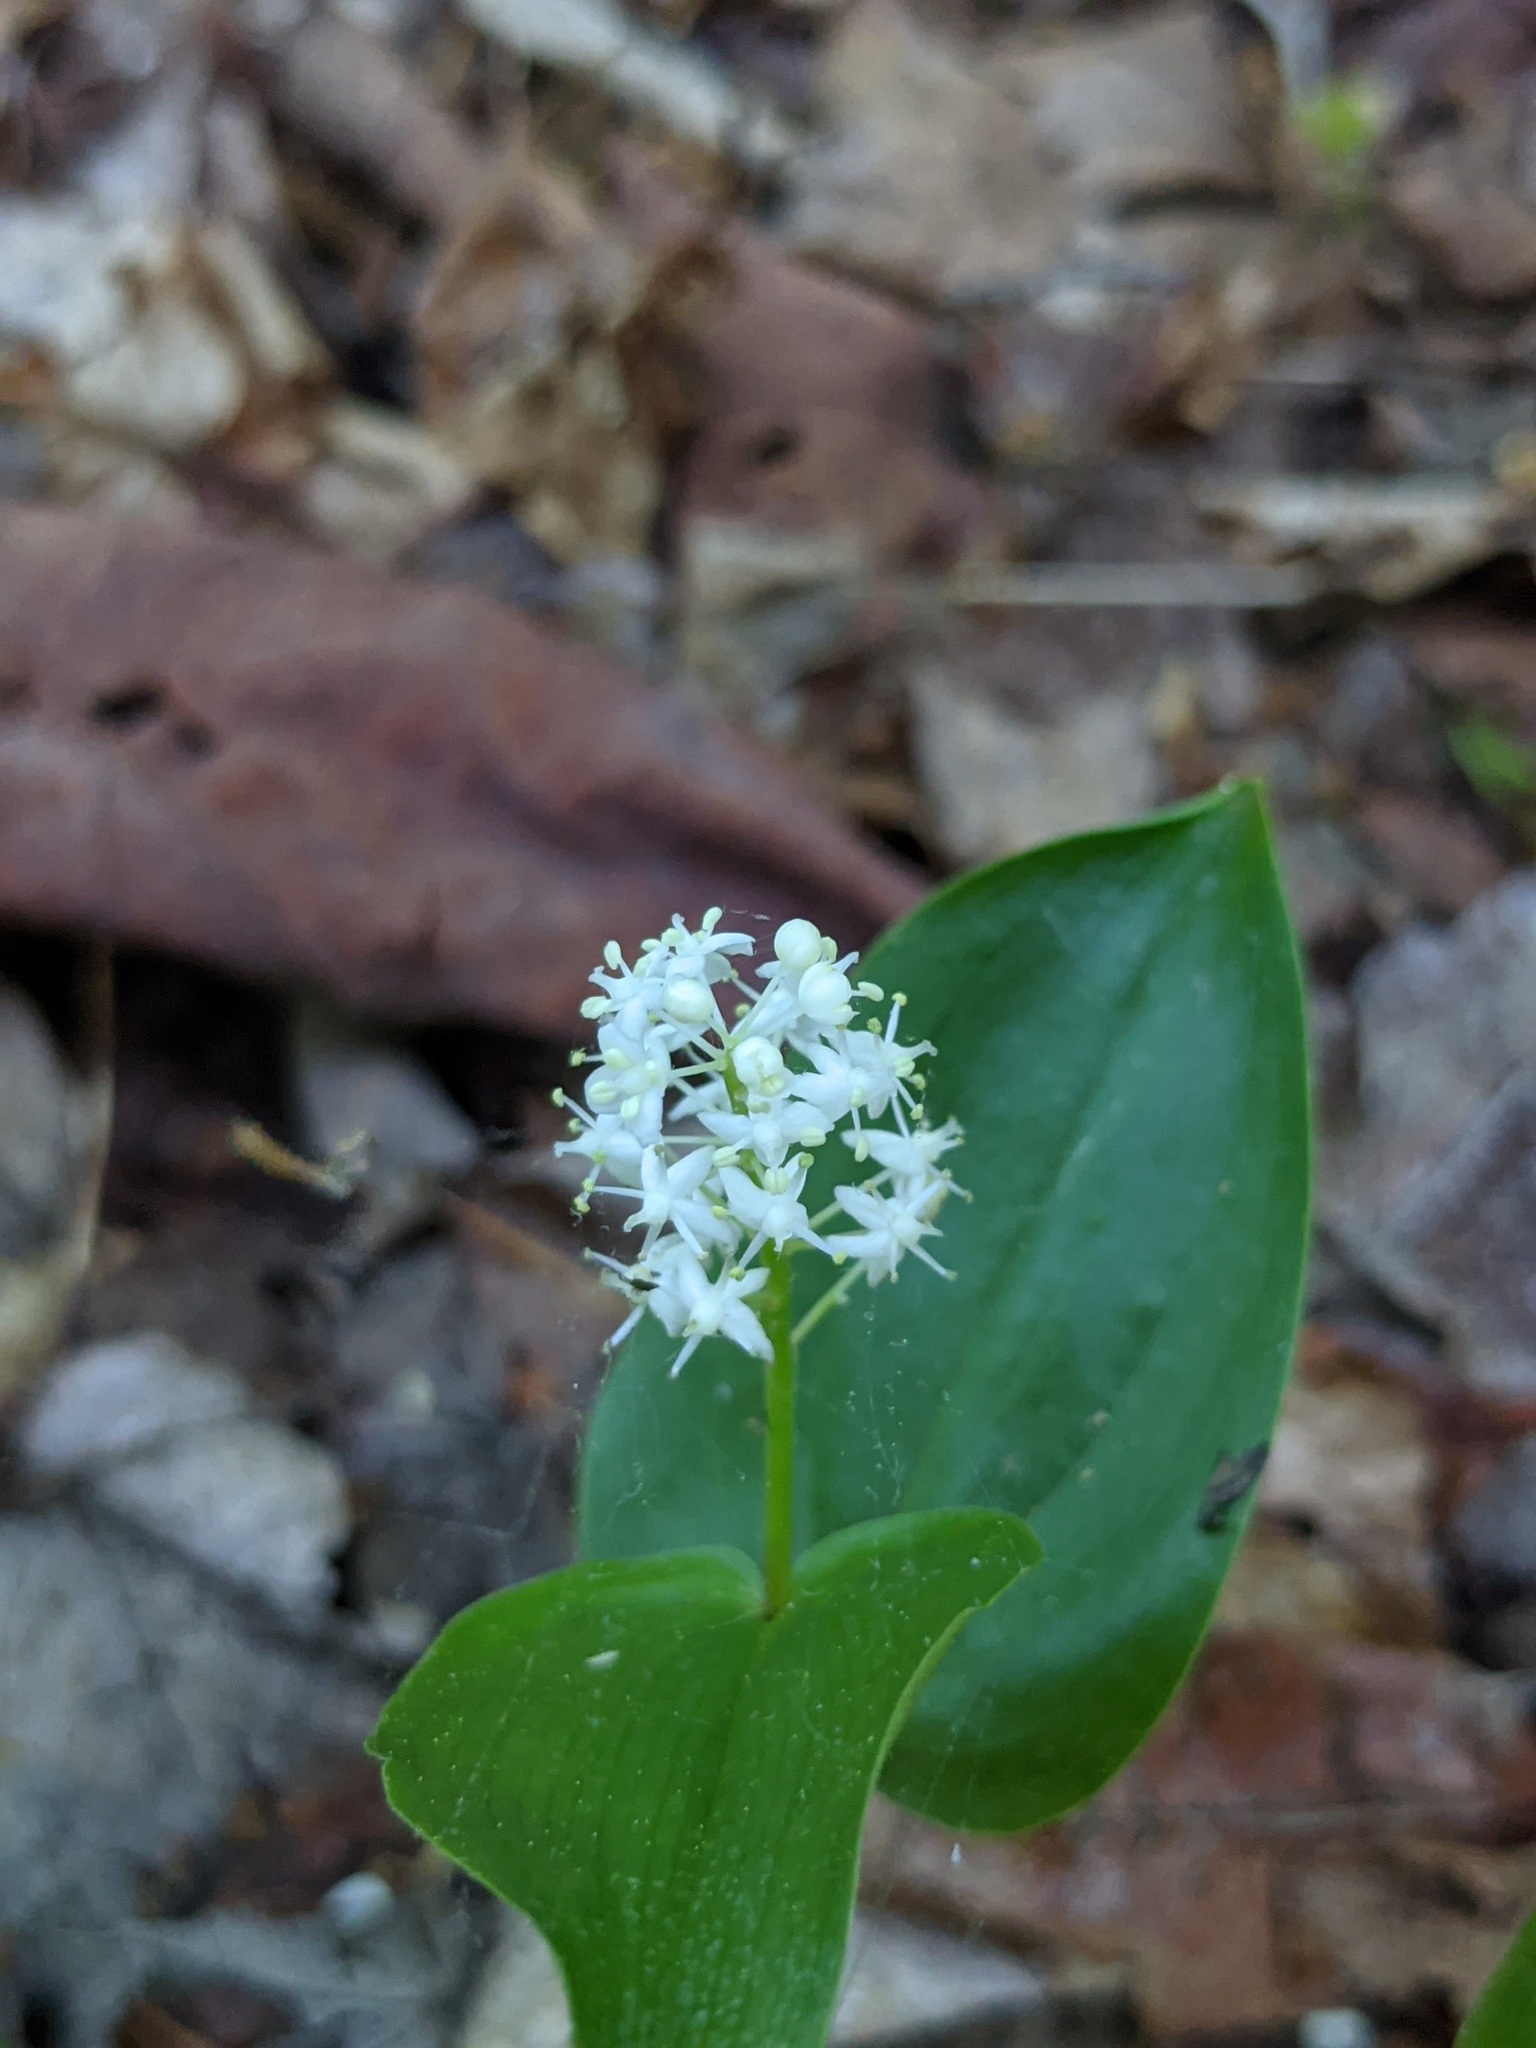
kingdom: Plantae
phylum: Tracheophyta
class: Liliopsida
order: Asparagales
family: Asparagaceae
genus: Maianthemum
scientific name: Maianthemum canadense
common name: False lily-of-the-valley
